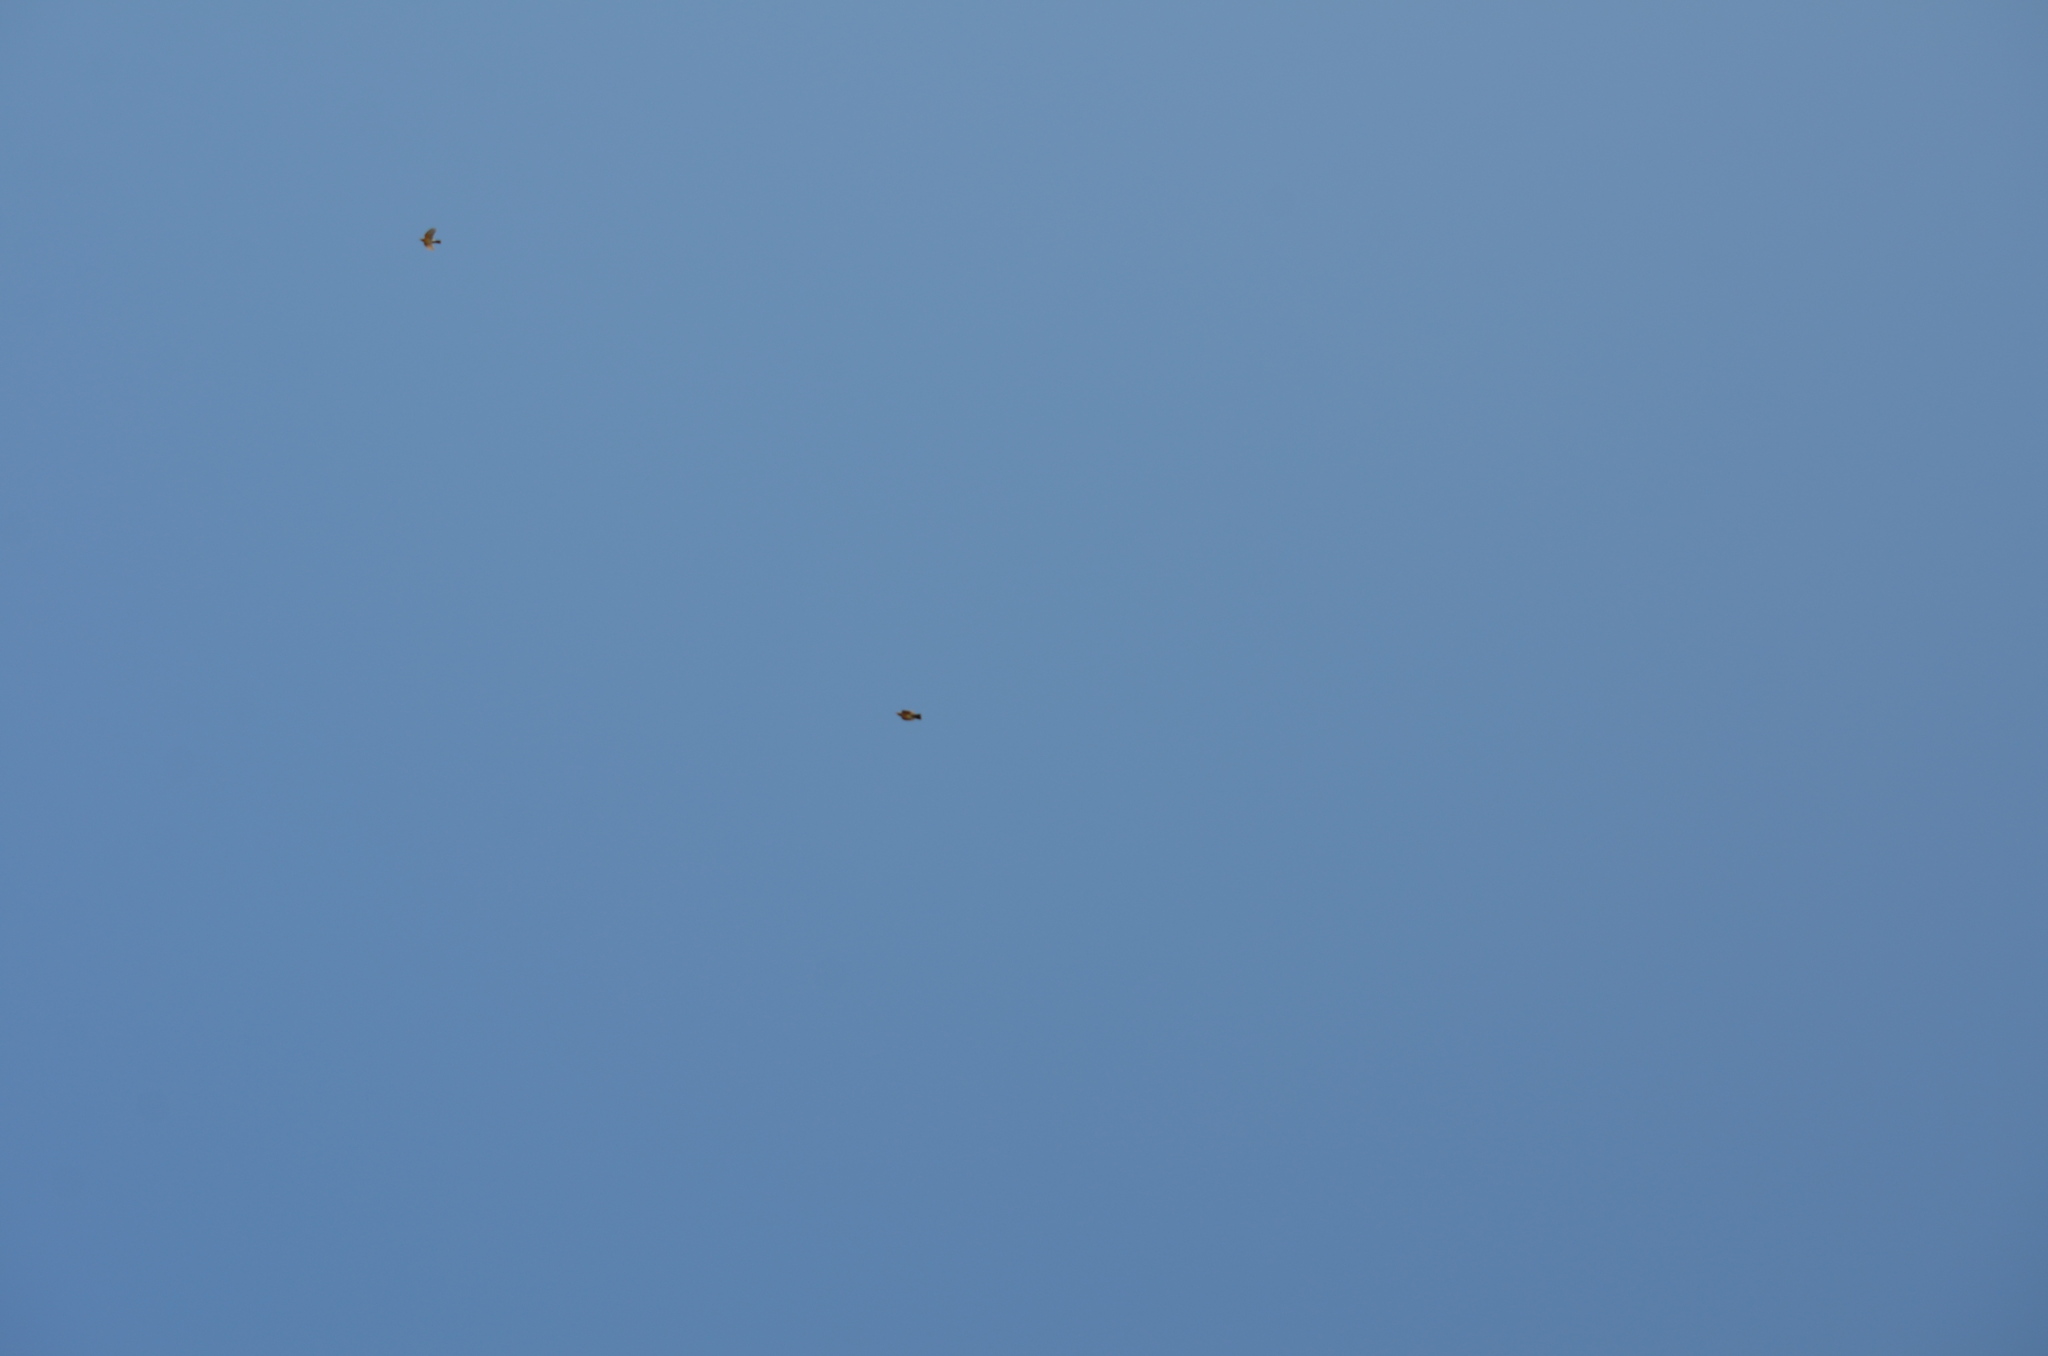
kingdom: Animalia
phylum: Chordata
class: Aves
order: Passeriformes
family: Turdidae
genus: Turdus
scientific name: Turdus migratorius
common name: American robin
